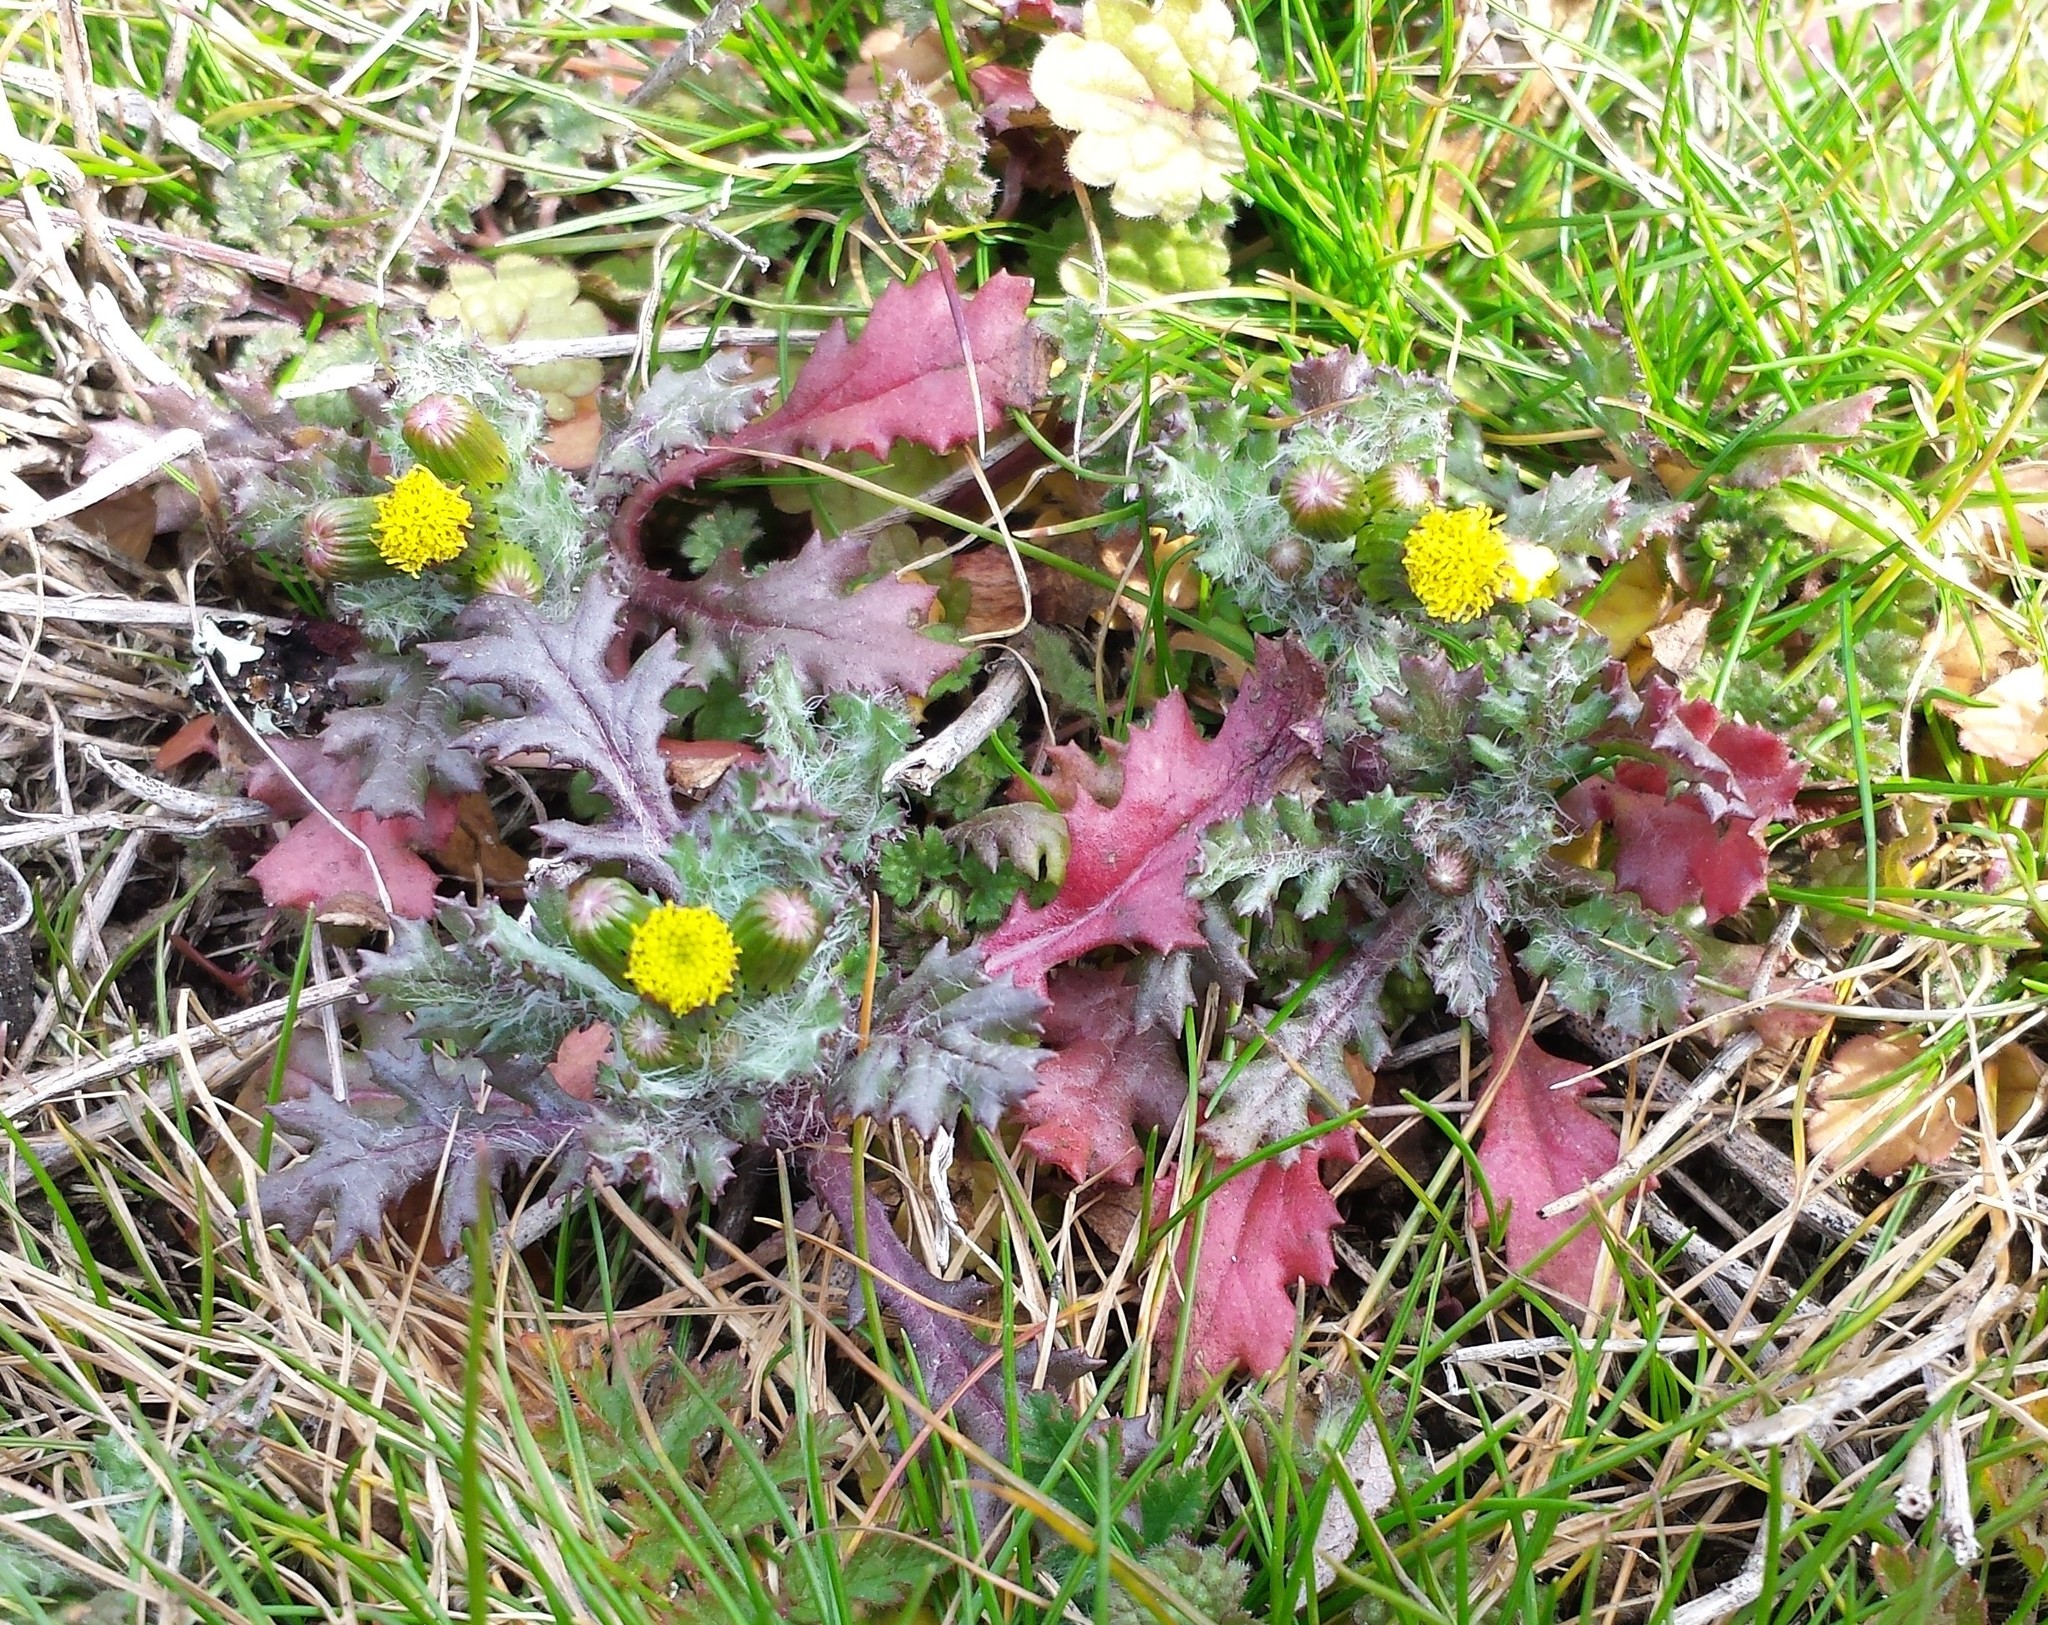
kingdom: Plantae
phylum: Tracheophyta
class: Magnoliopsida
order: Asterales
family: Asteraceae
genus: Senecio
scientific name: Senecio vulgaris
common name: Old-man-in-the-spring
